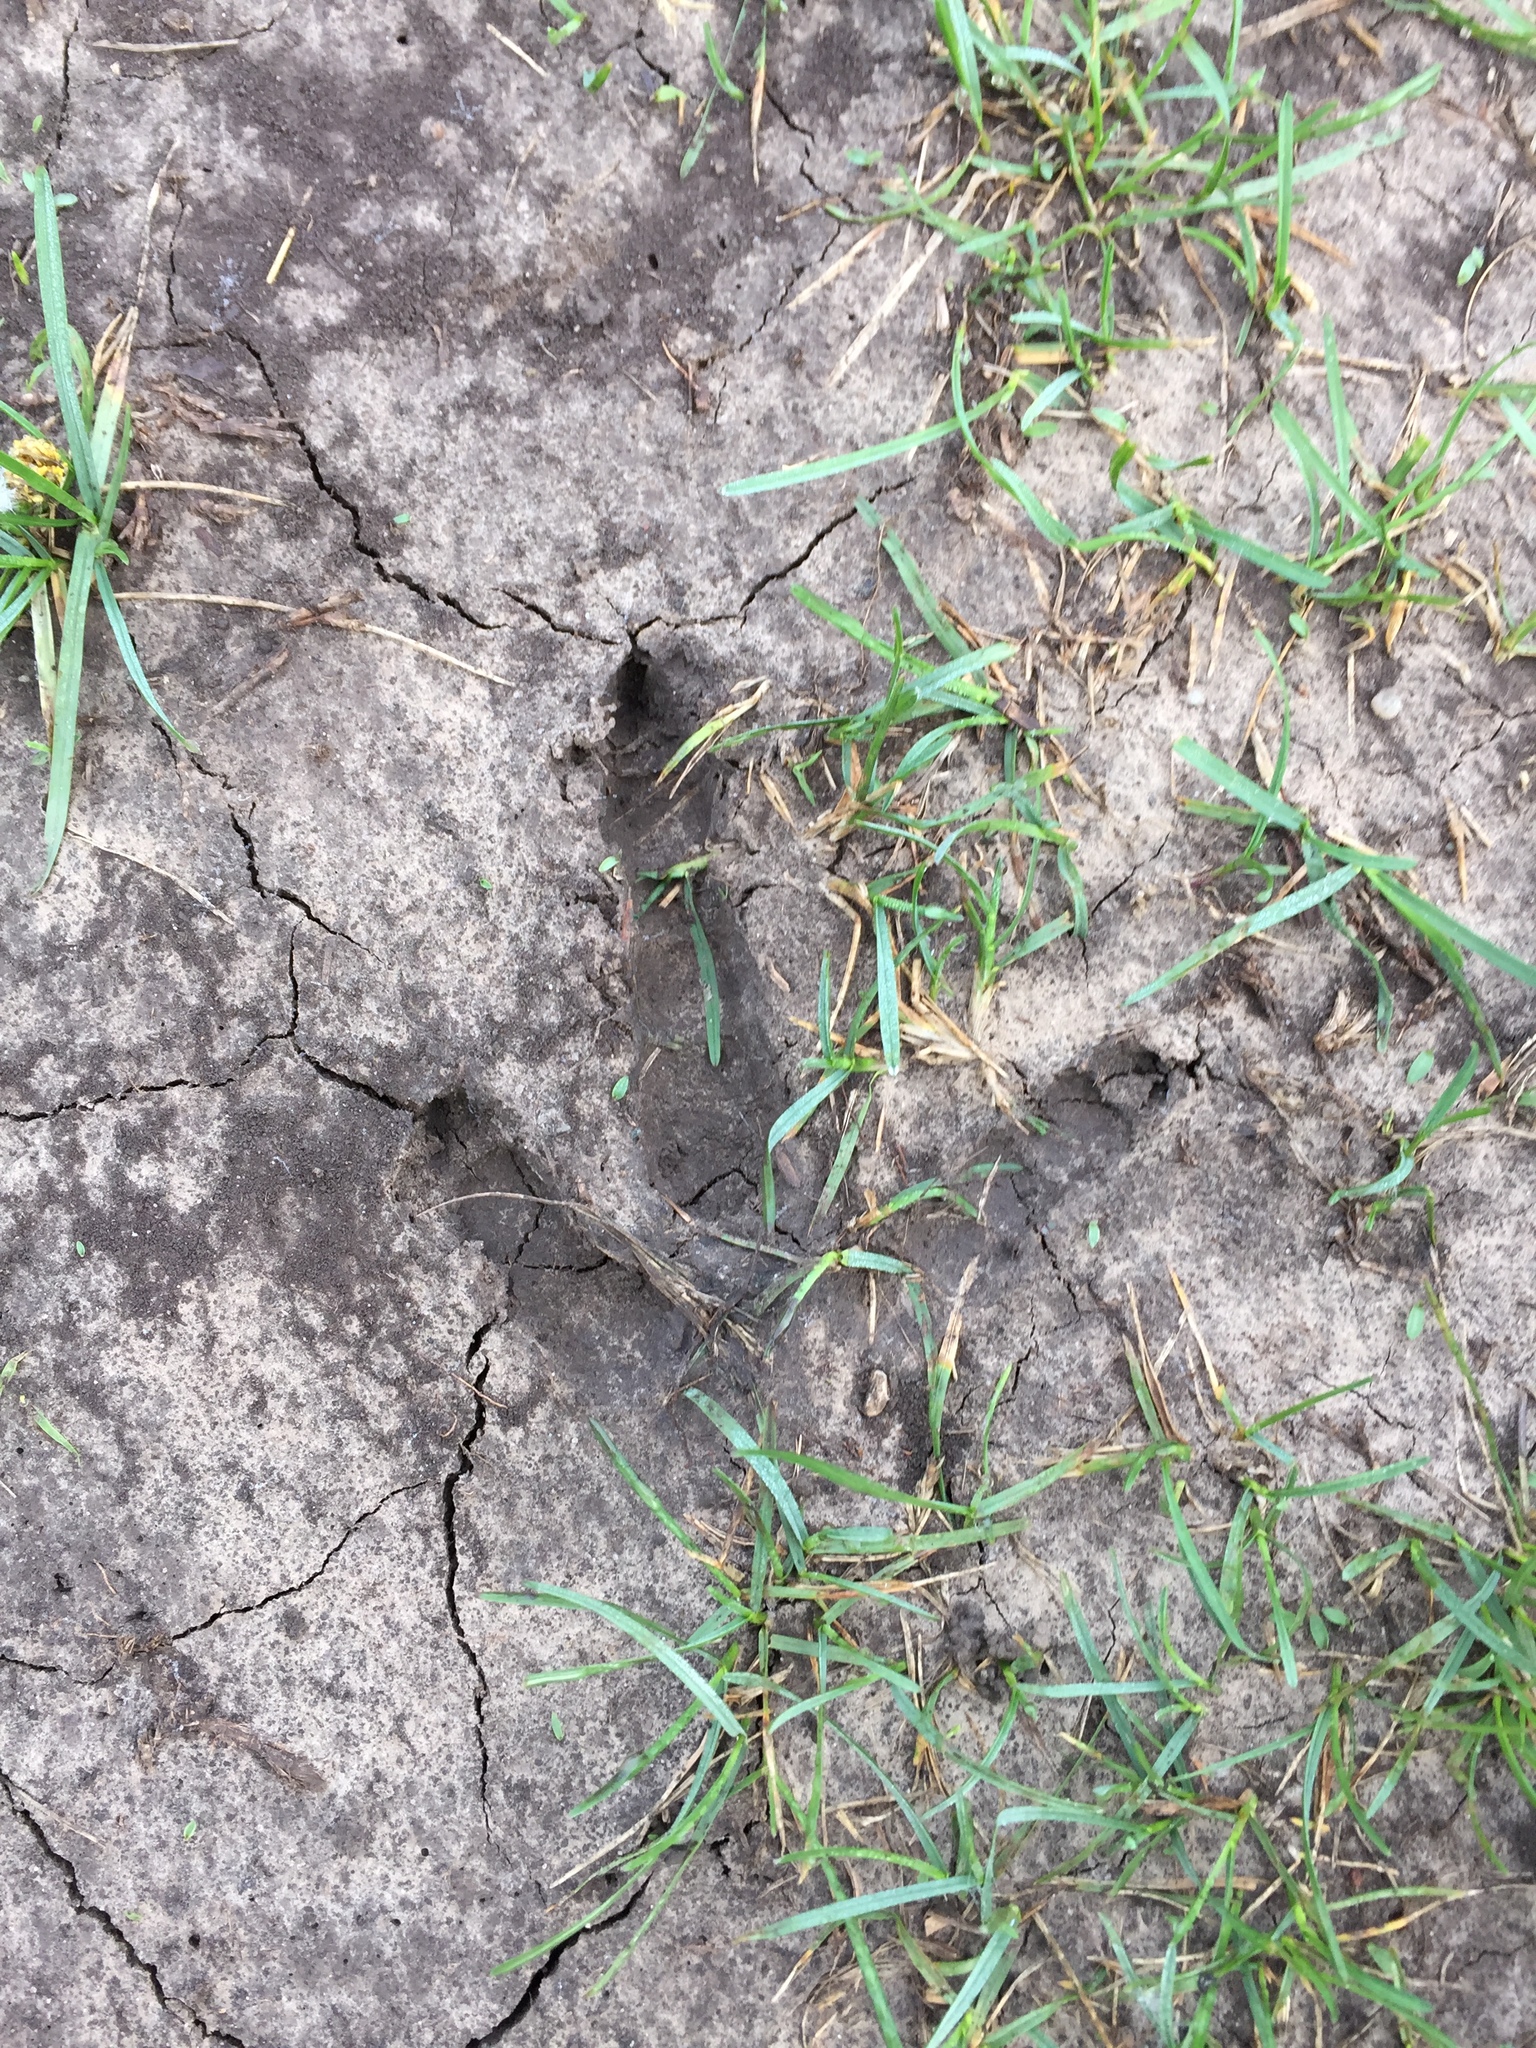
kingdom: Animalia
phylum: Chordata
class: Aves
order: Galliformes
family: Phasianidae
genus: Meleagris
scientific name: Meleagris gallopavo
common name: Wild turkey
